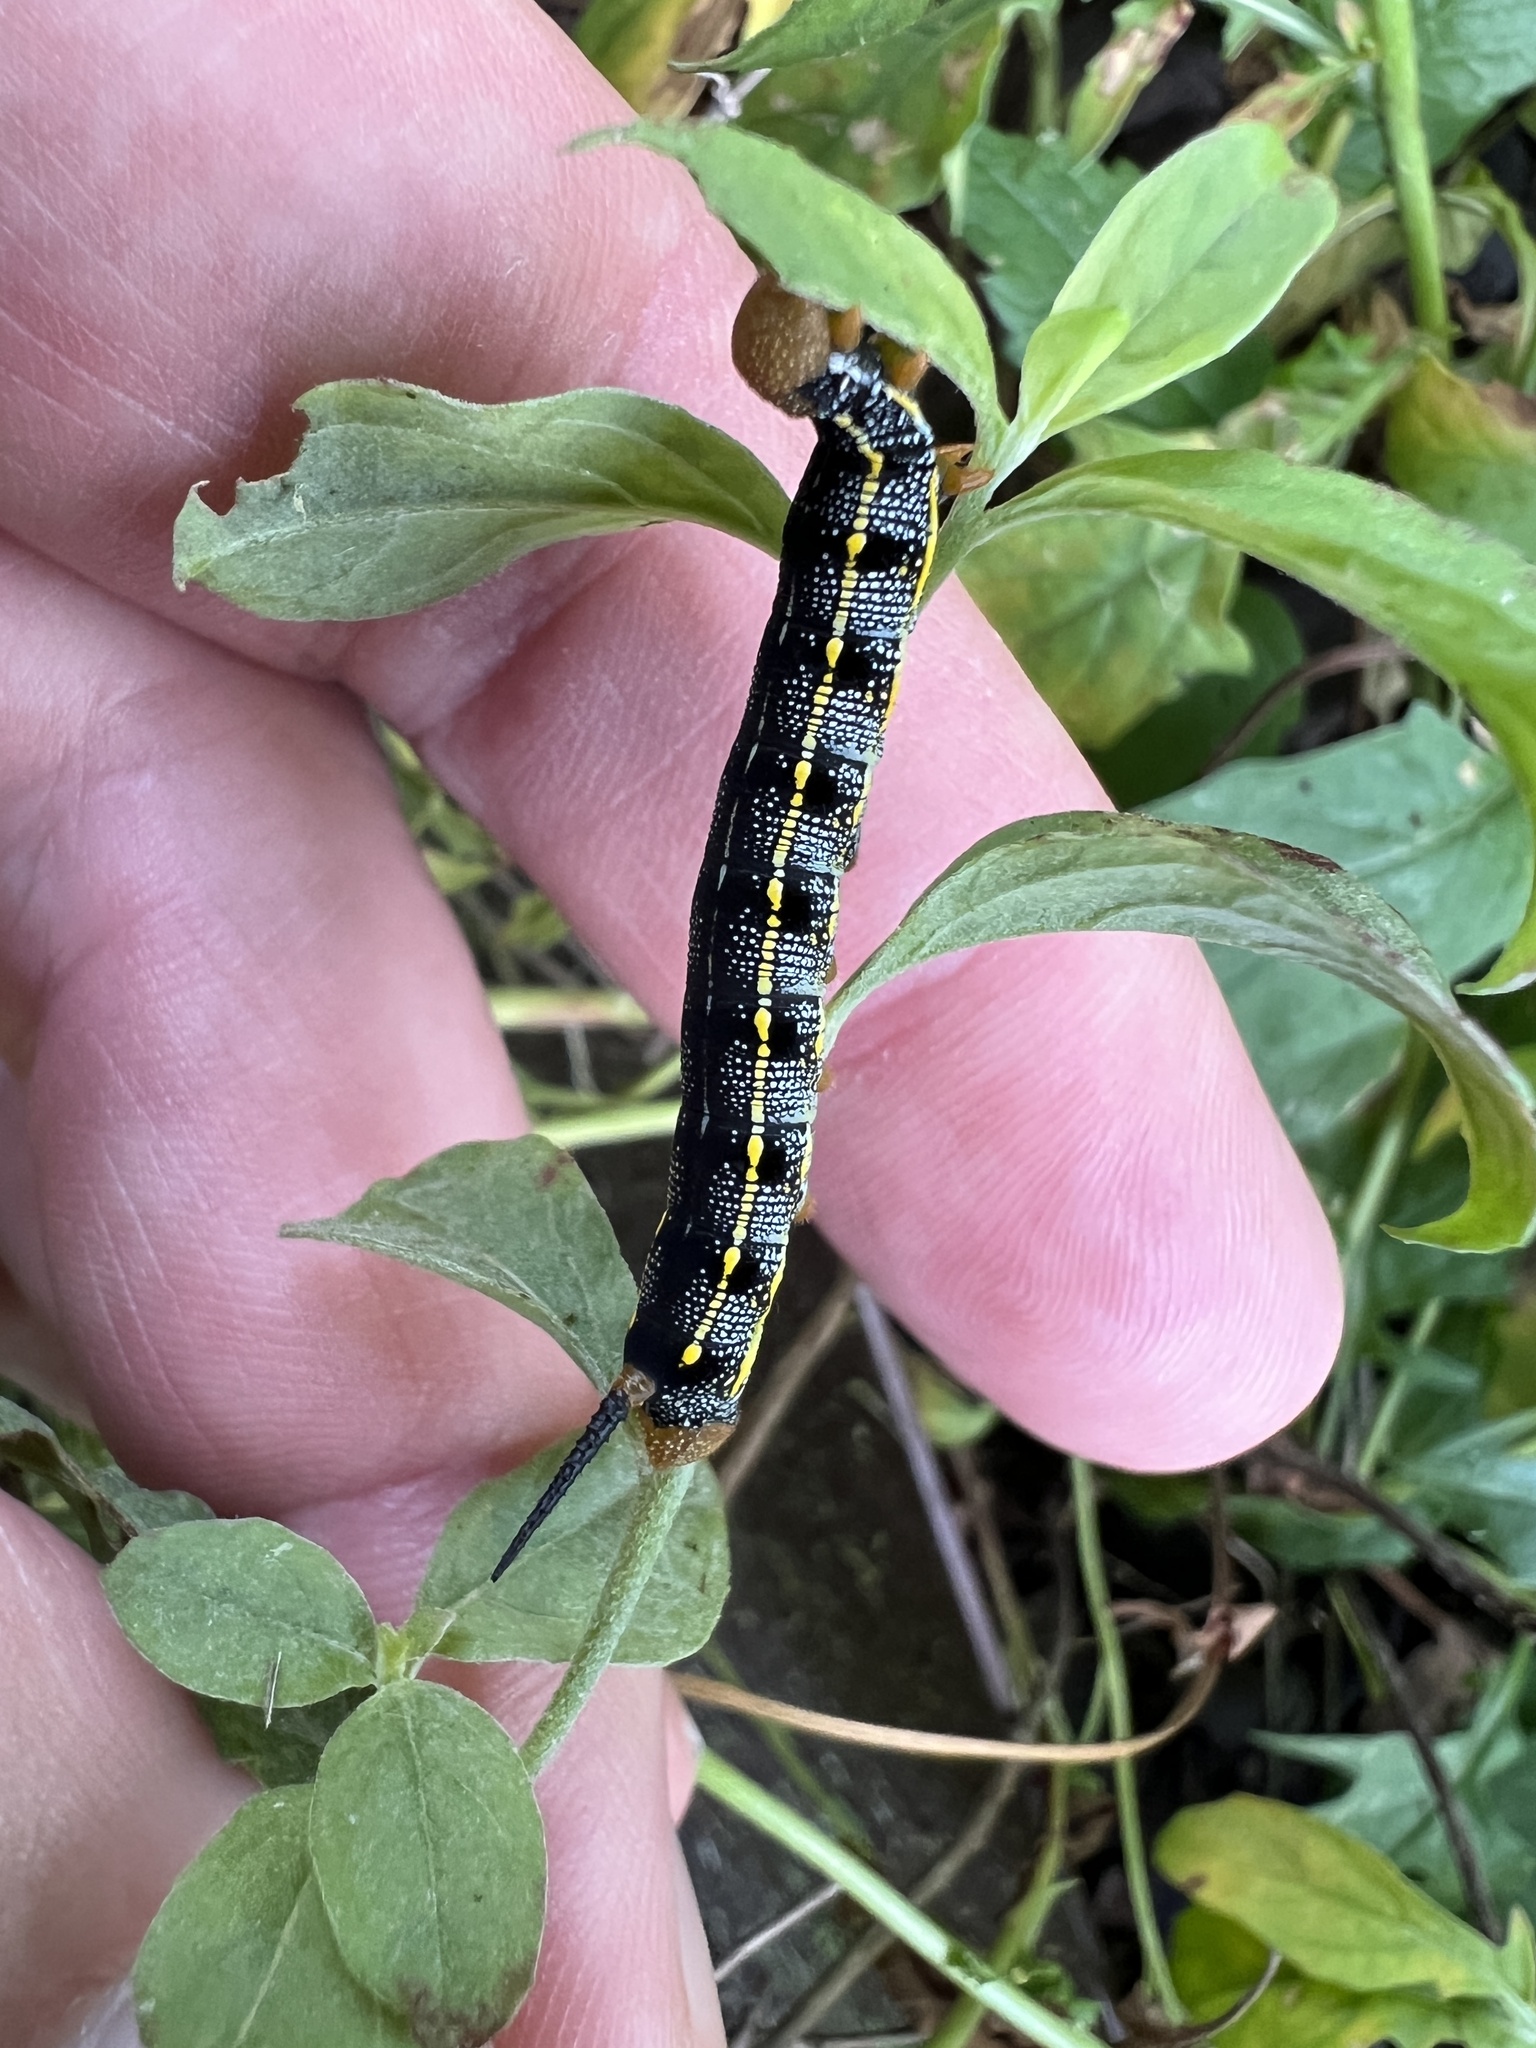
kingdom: Animalia
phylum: Arthropoda
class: Insecta
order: Lepidoptera
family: Sphingidae
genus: Hyles
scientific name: Hyles lineata
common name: White-lined sphinx
